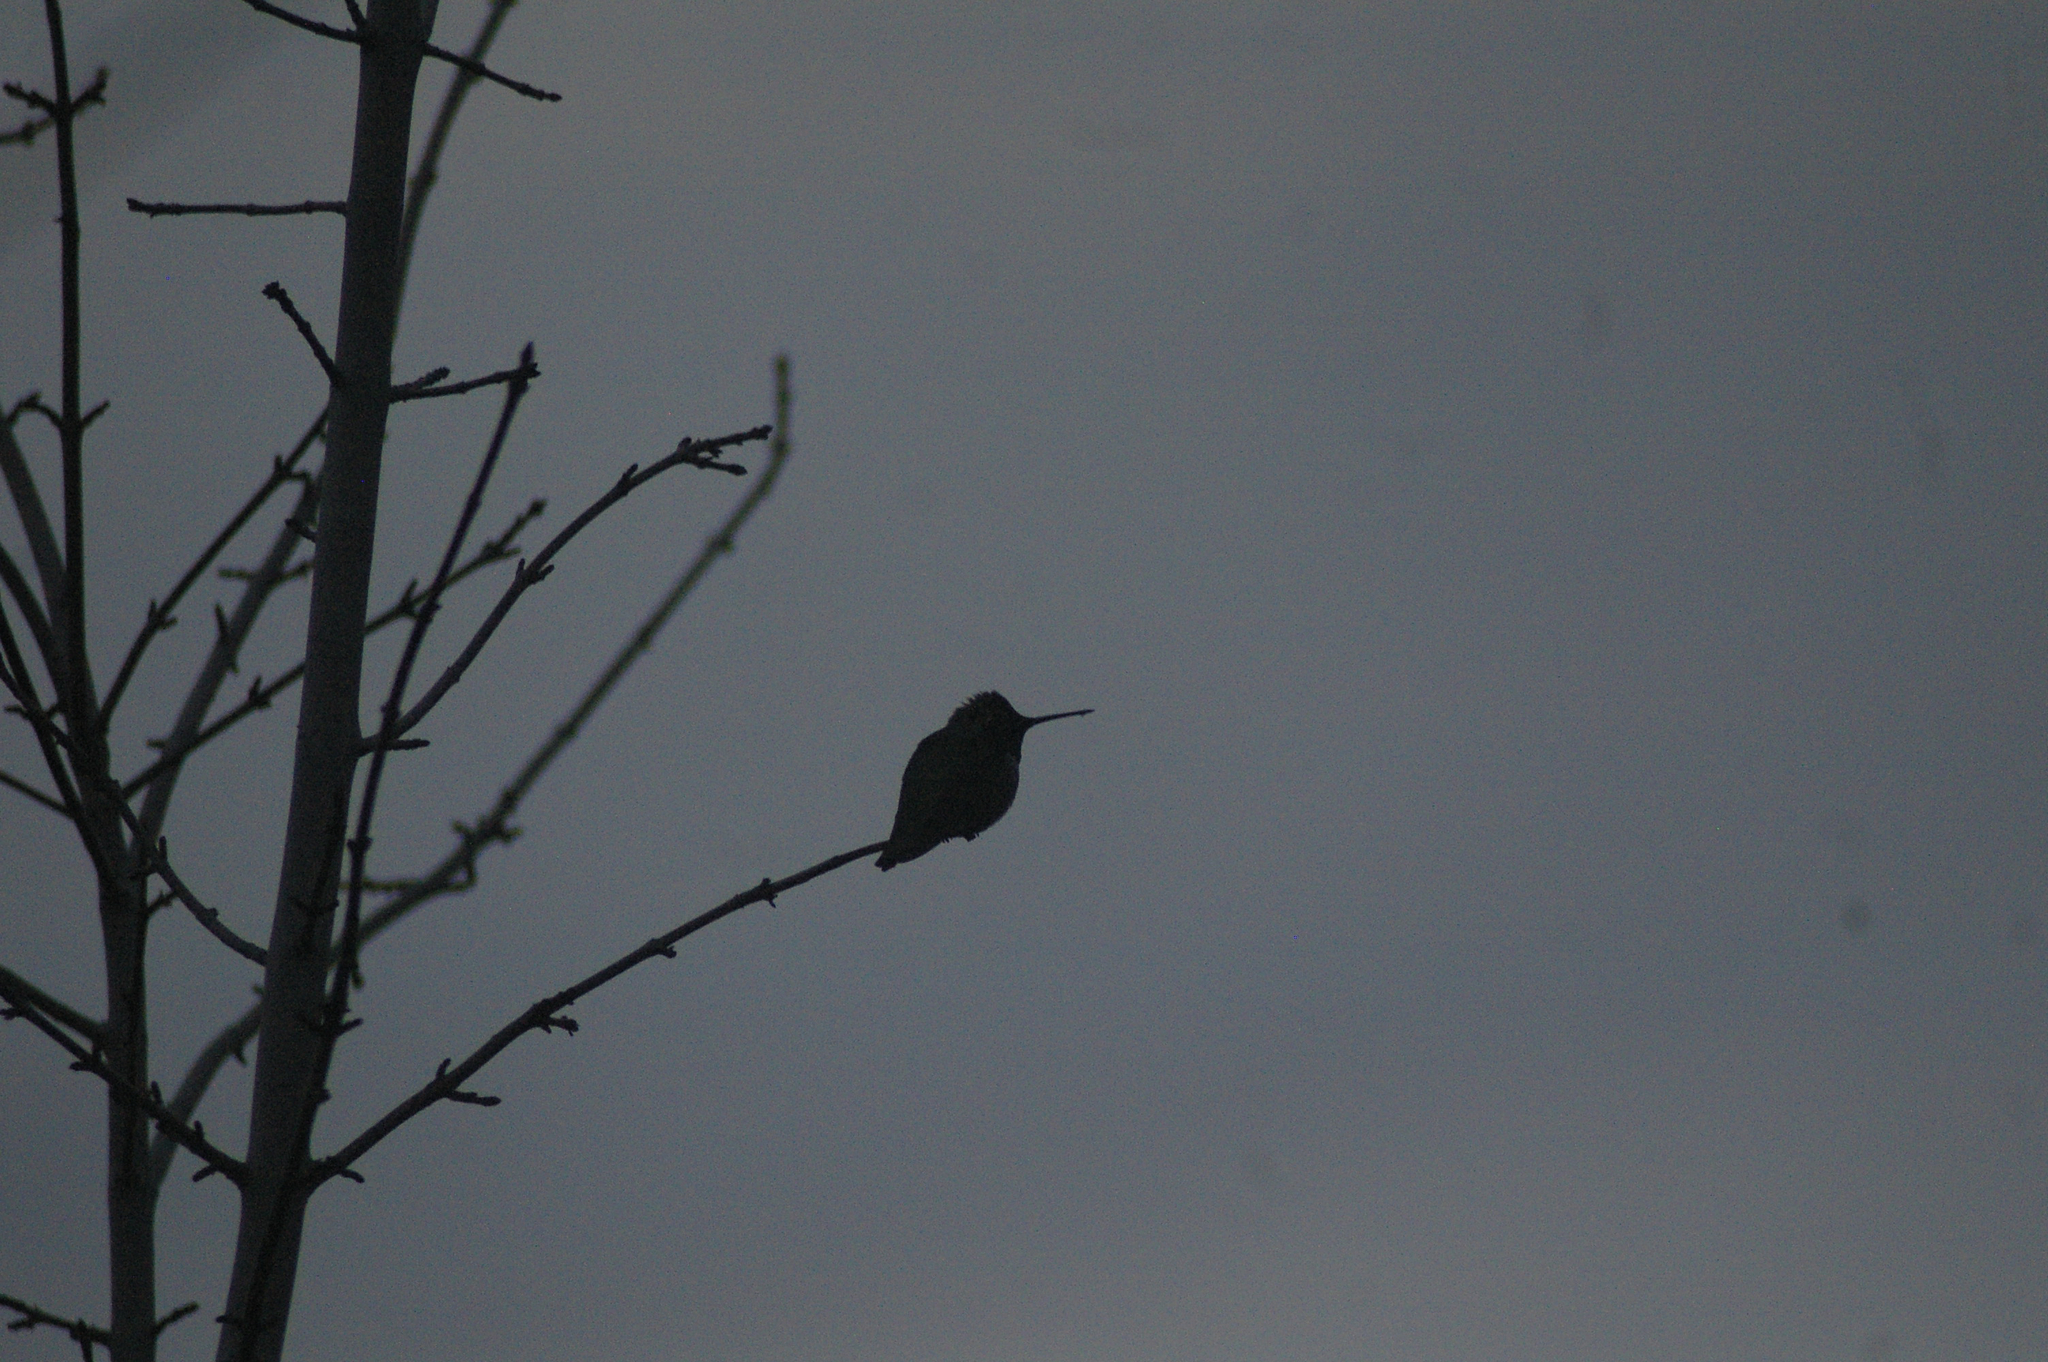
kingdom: Animalia
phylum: Chordata
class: Aves
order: Apodiformes
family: Trochilidae
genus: Calypte
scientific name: Calypte anna
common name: Anna's hummingbird
